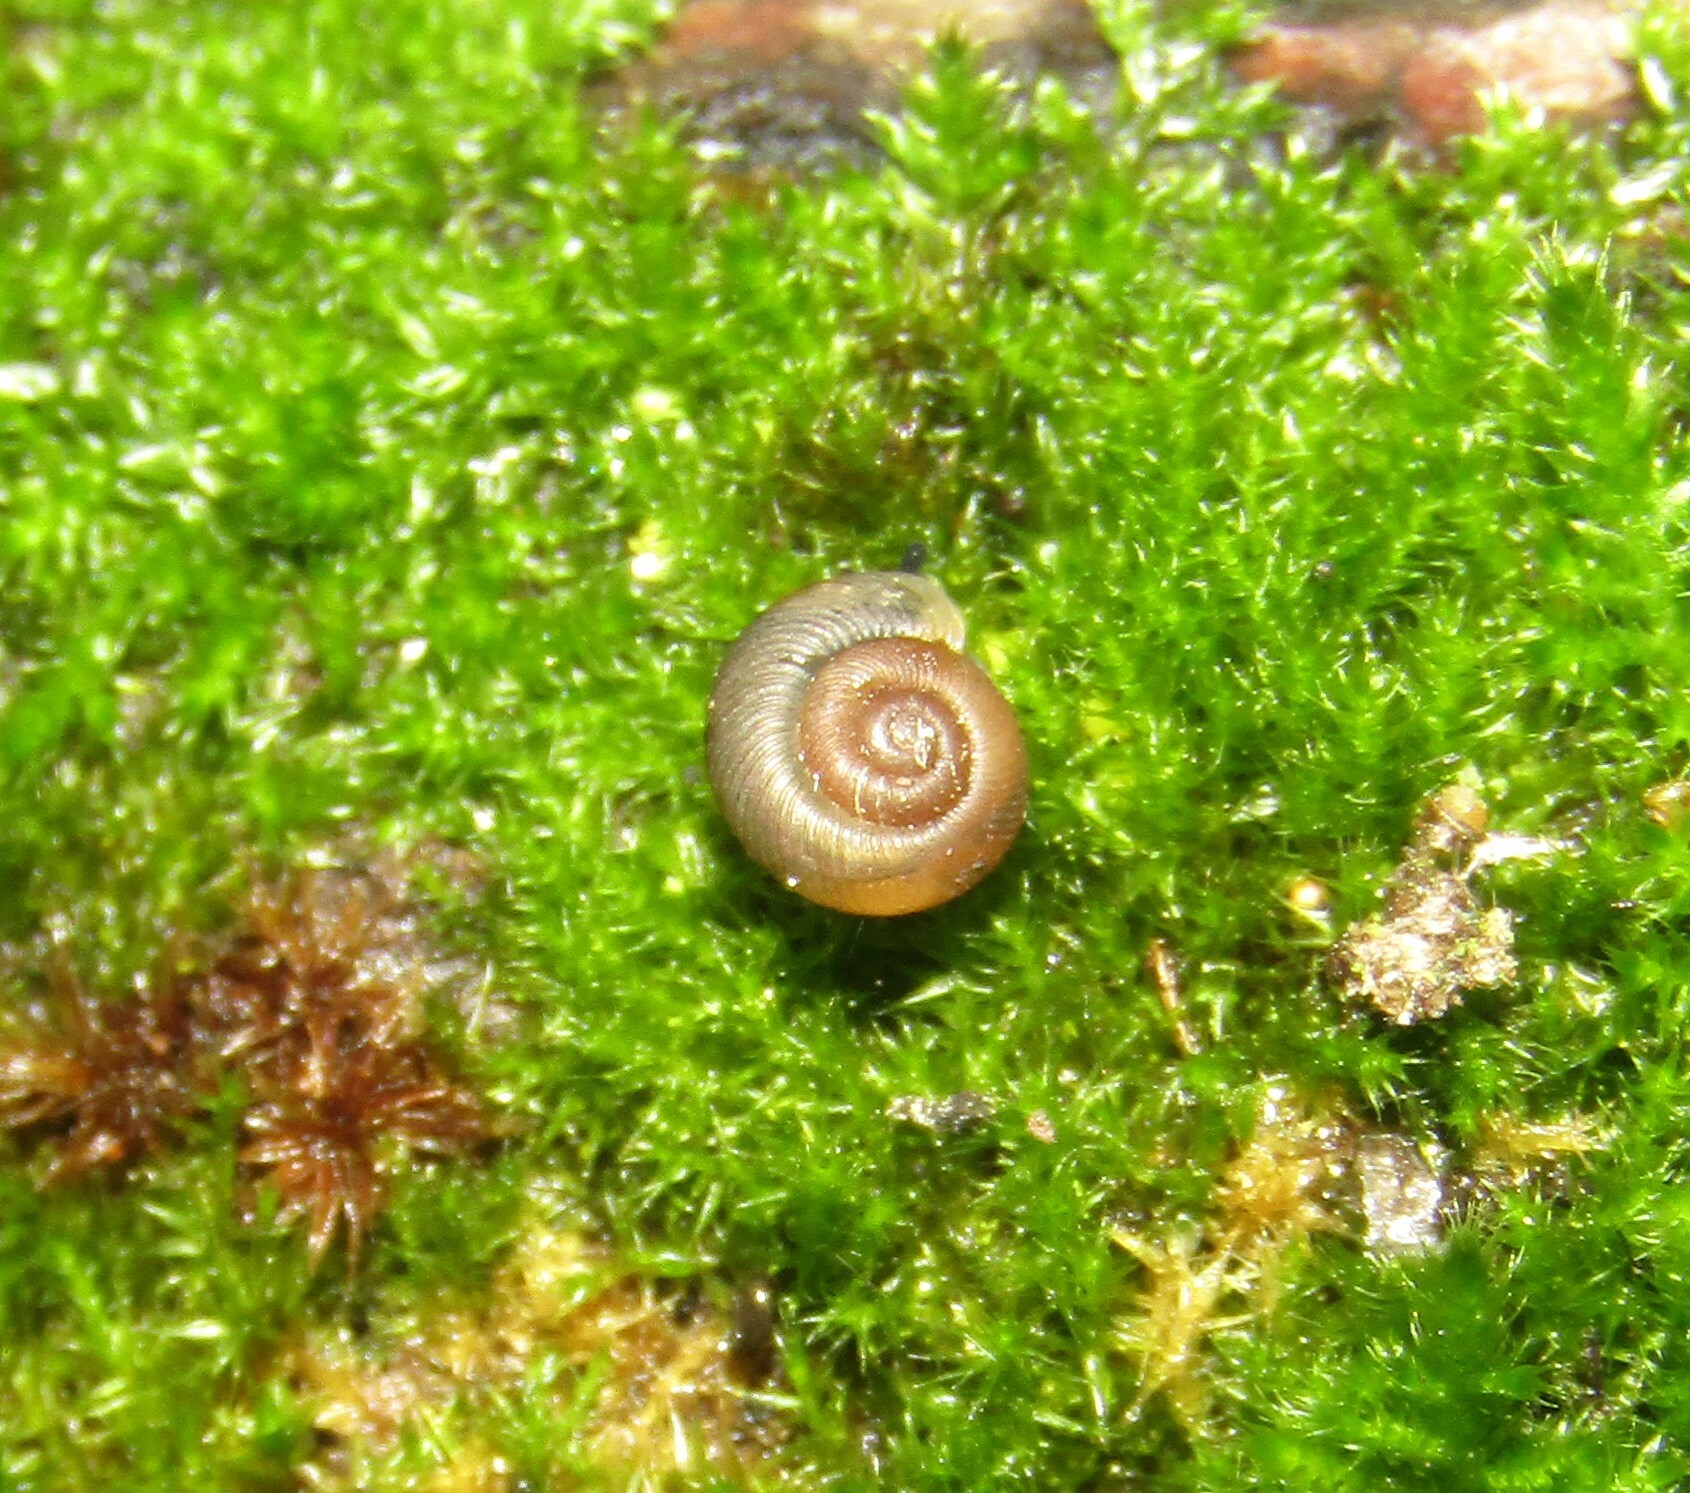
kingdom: Animalia
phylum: Mollusca
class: Gastropoda
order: Stylommatophora
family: Discidae
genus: Discus
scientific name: Discus ruderatus
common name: Brown disc snail
